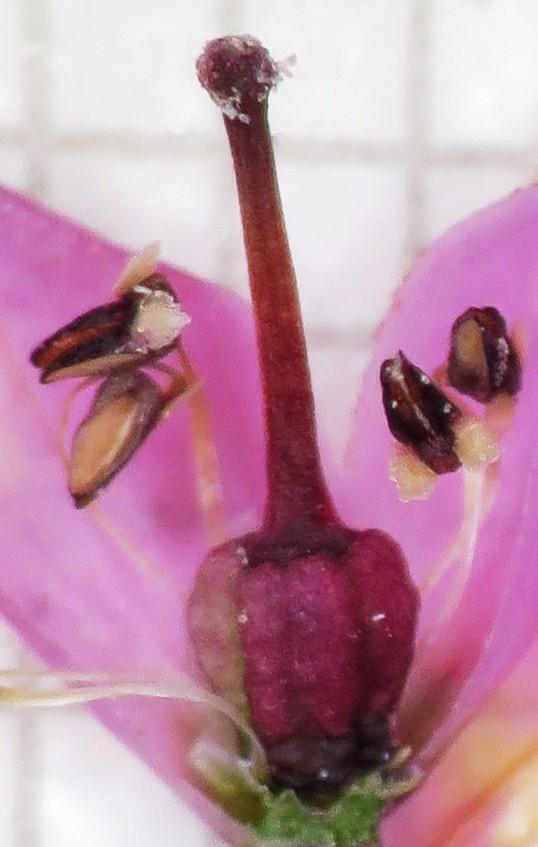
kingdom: Plantae
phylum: Tracheophyta
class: Magnoliopsida
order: Ericales
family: Ericaceae
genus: Erica
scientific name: Erica corifolia
